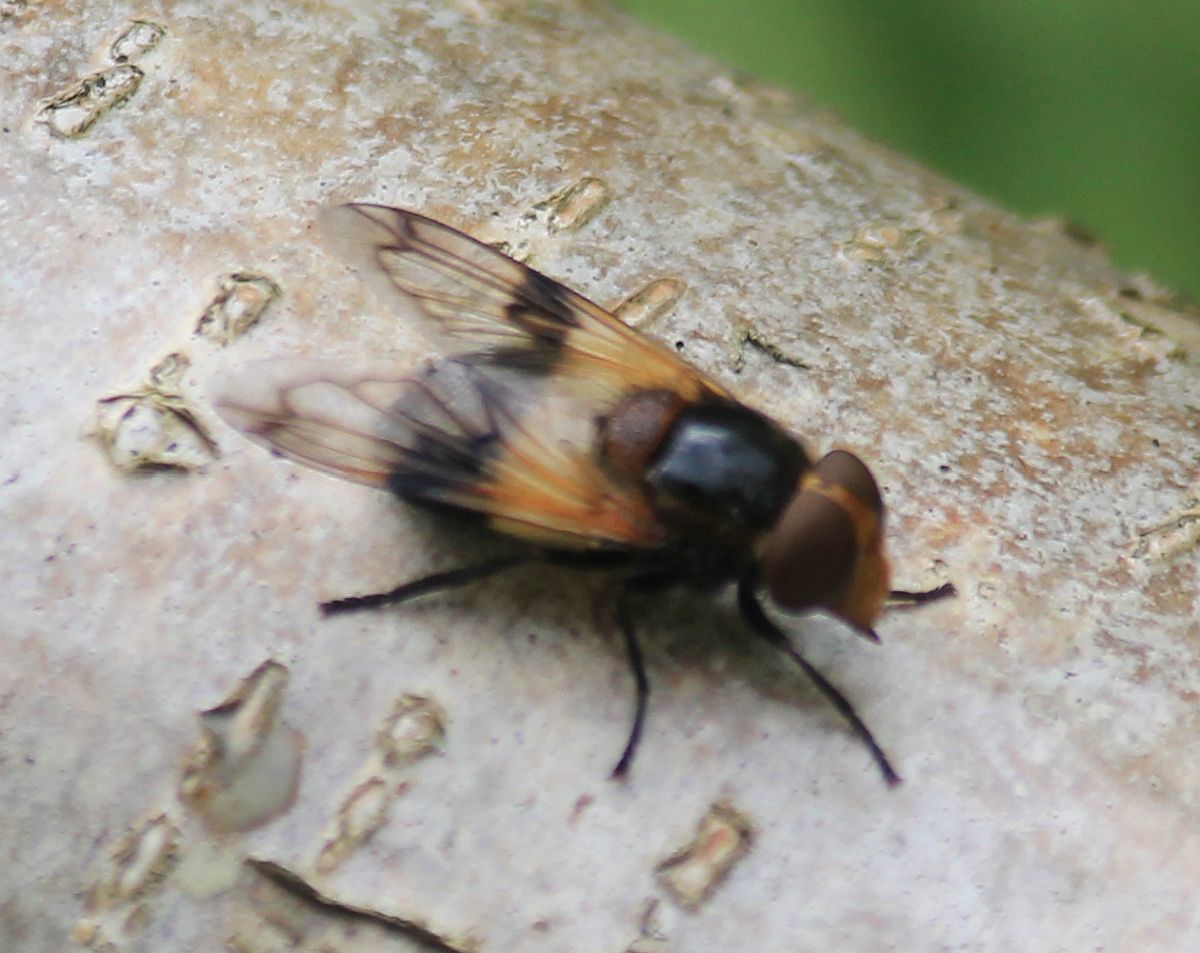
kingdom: Animalia
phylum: Arthropoda
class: Insecta
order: Diptera
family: Syrphidae
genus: Volucella
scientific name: Volucella pellucens
